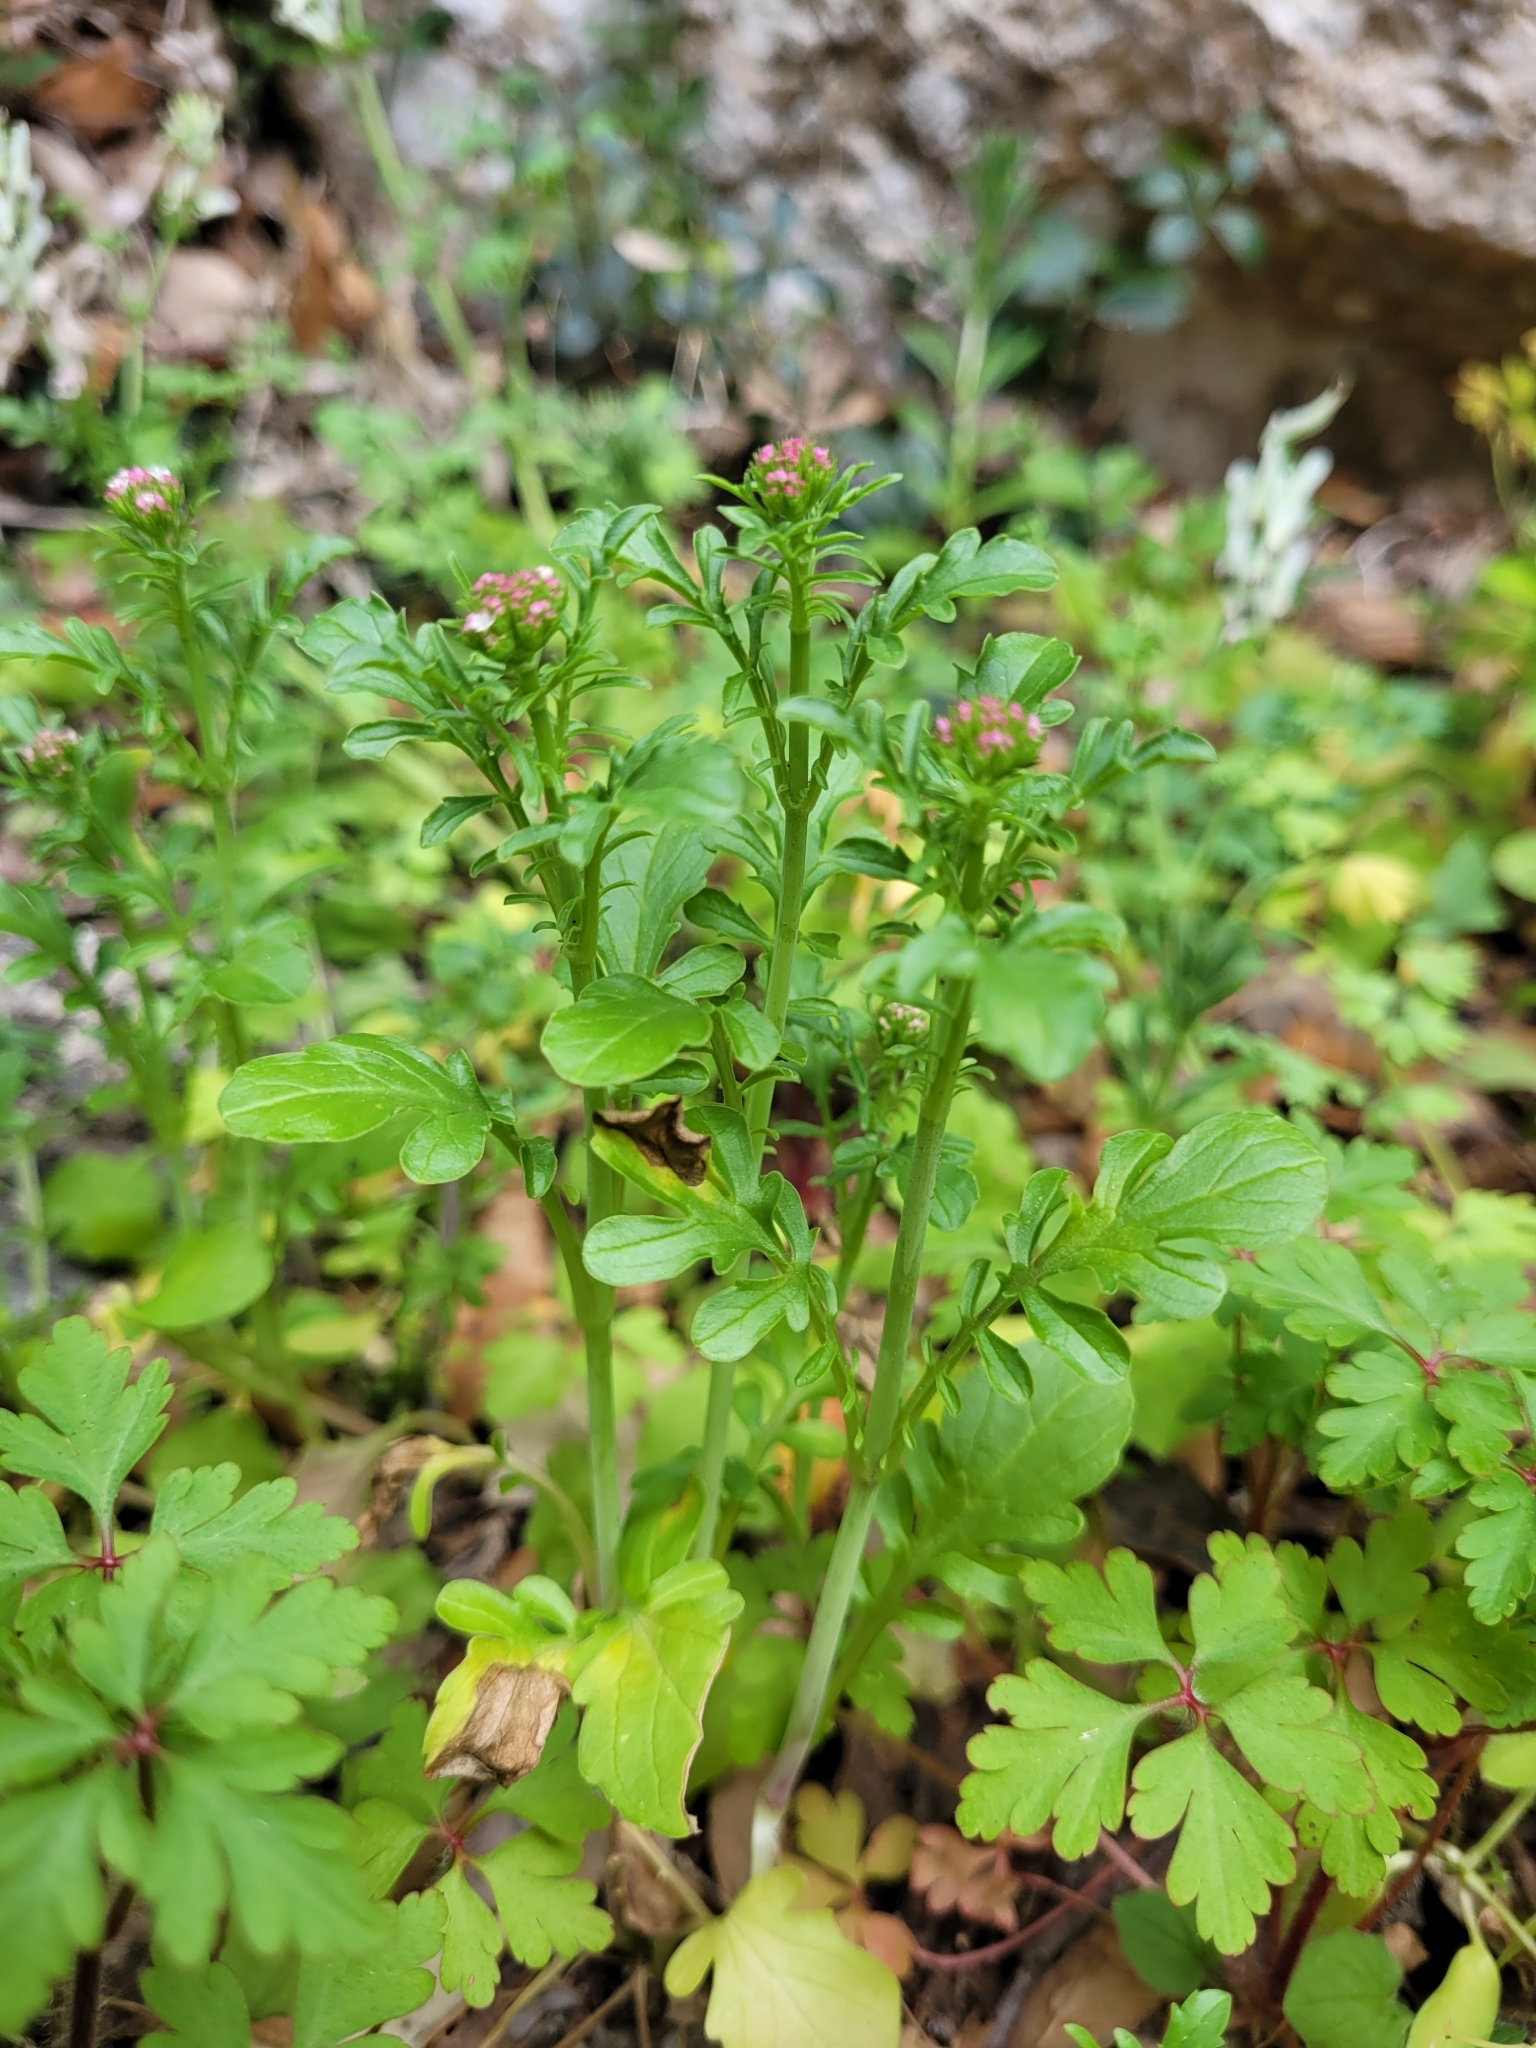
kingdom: Plantae
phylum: Tracheophyta
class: Magnoliopsida
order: Dipsacales
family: Caprifoliaceae
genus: Centranthus
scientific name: Centranthus calcitrapae
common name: Annual valerian
